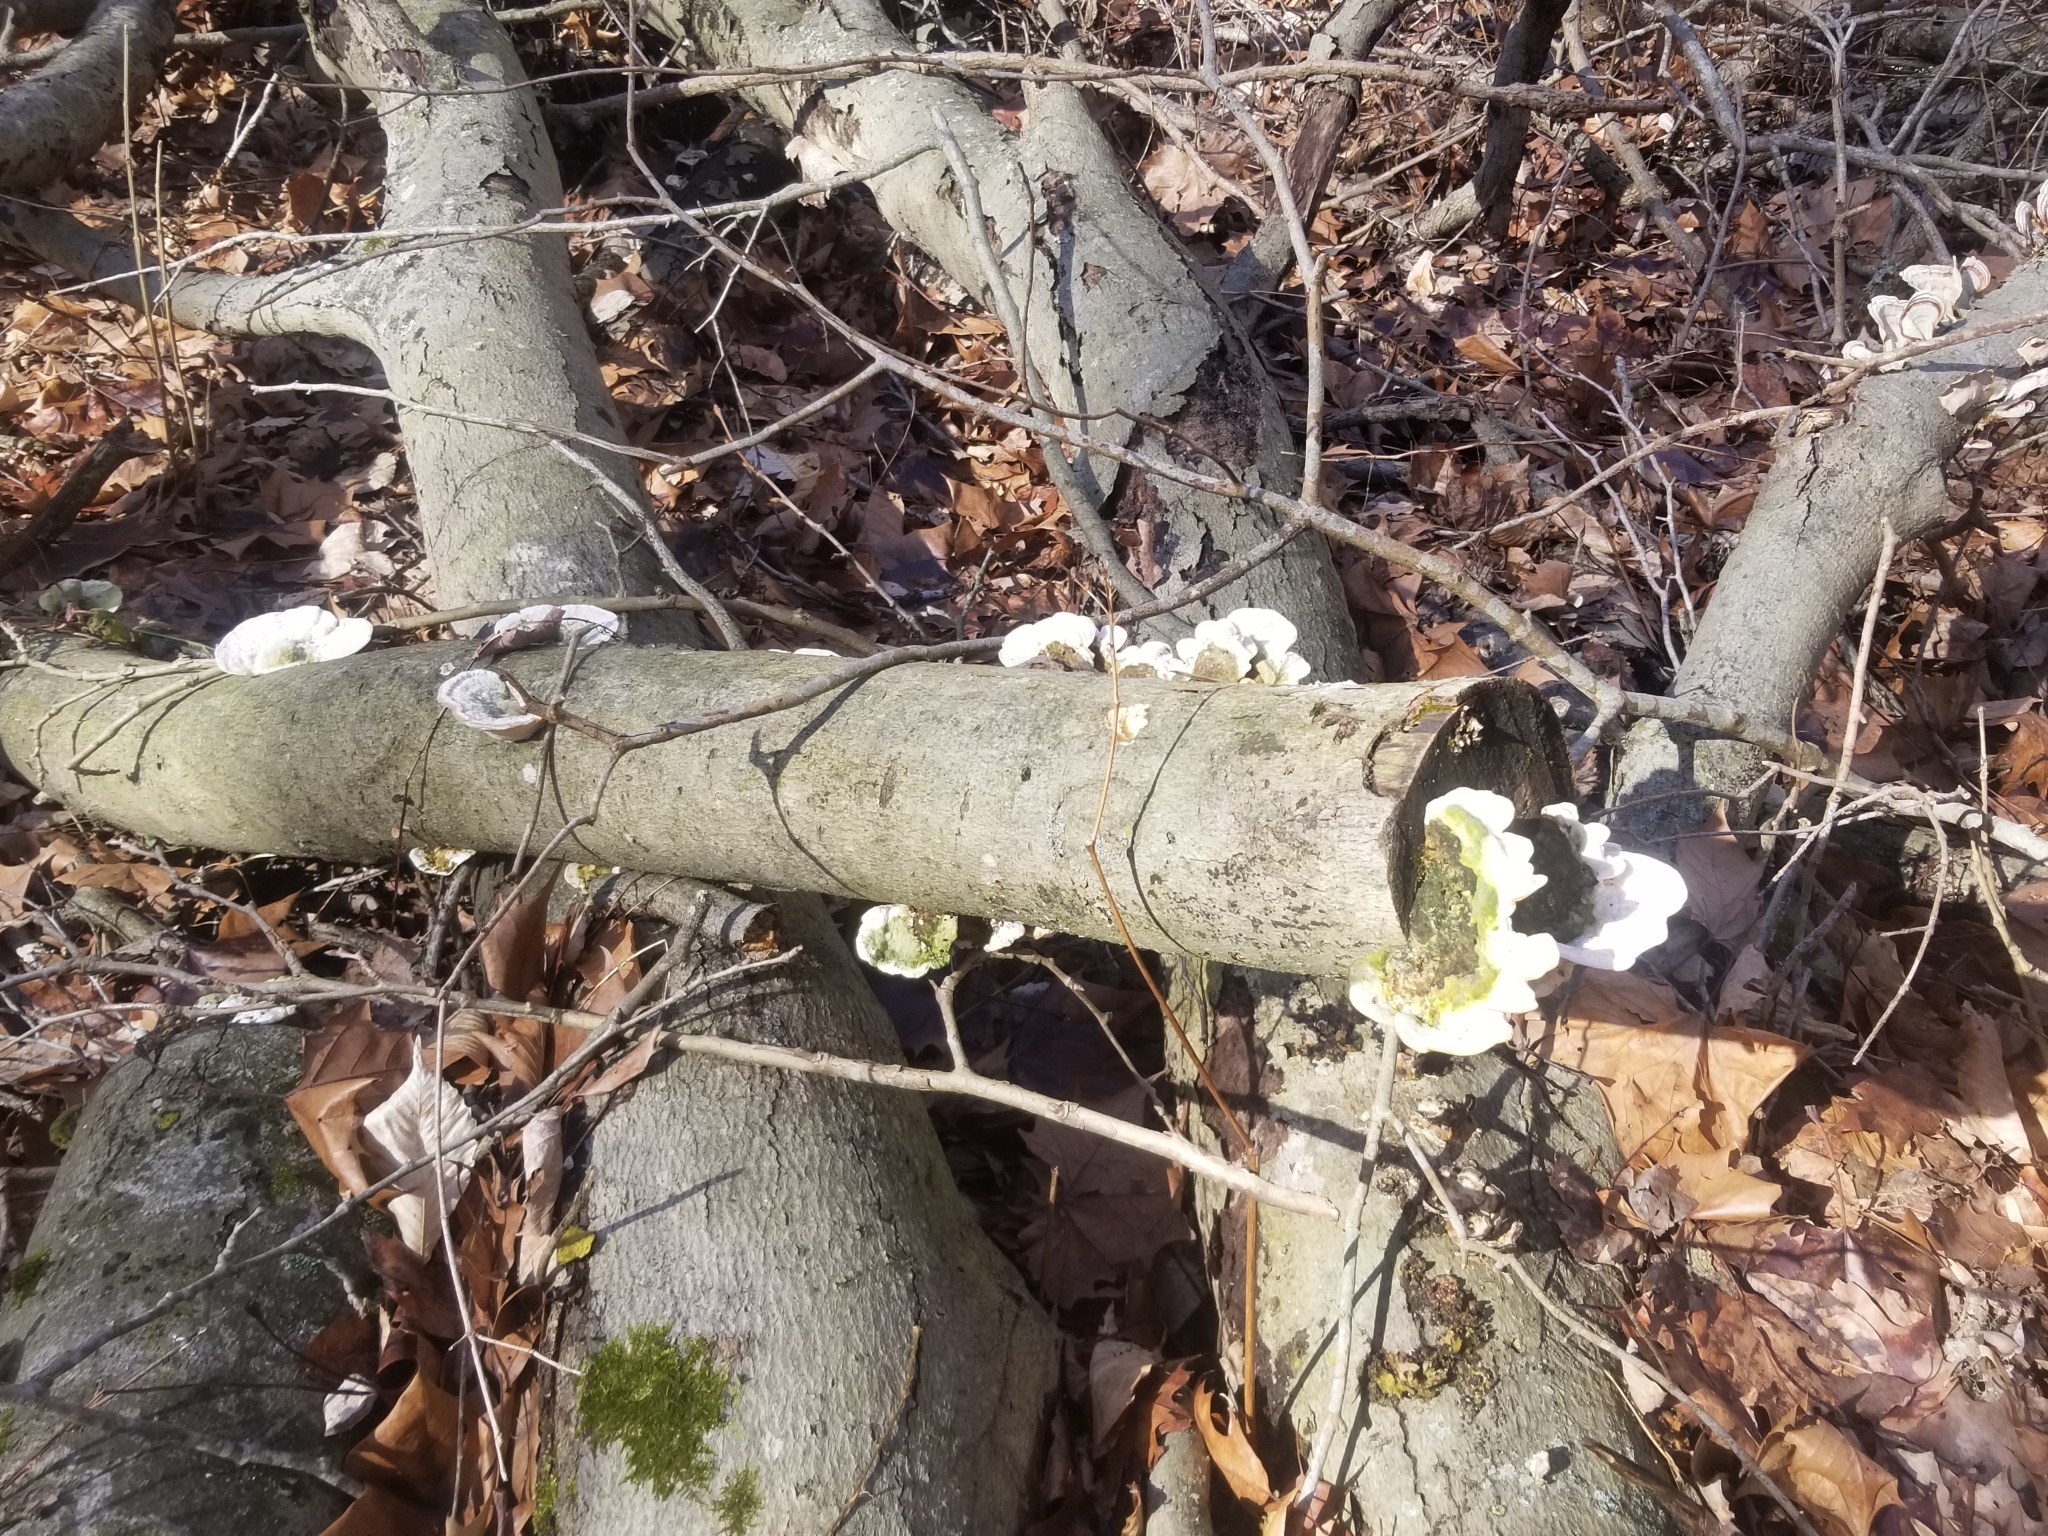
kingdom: Fungi
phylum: Basidiomycota
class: Agaricomycetes
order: Polyporales
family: Polyporaceae
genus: Trametes
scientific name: Trametes gibbosa
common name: Lumpy bracket
